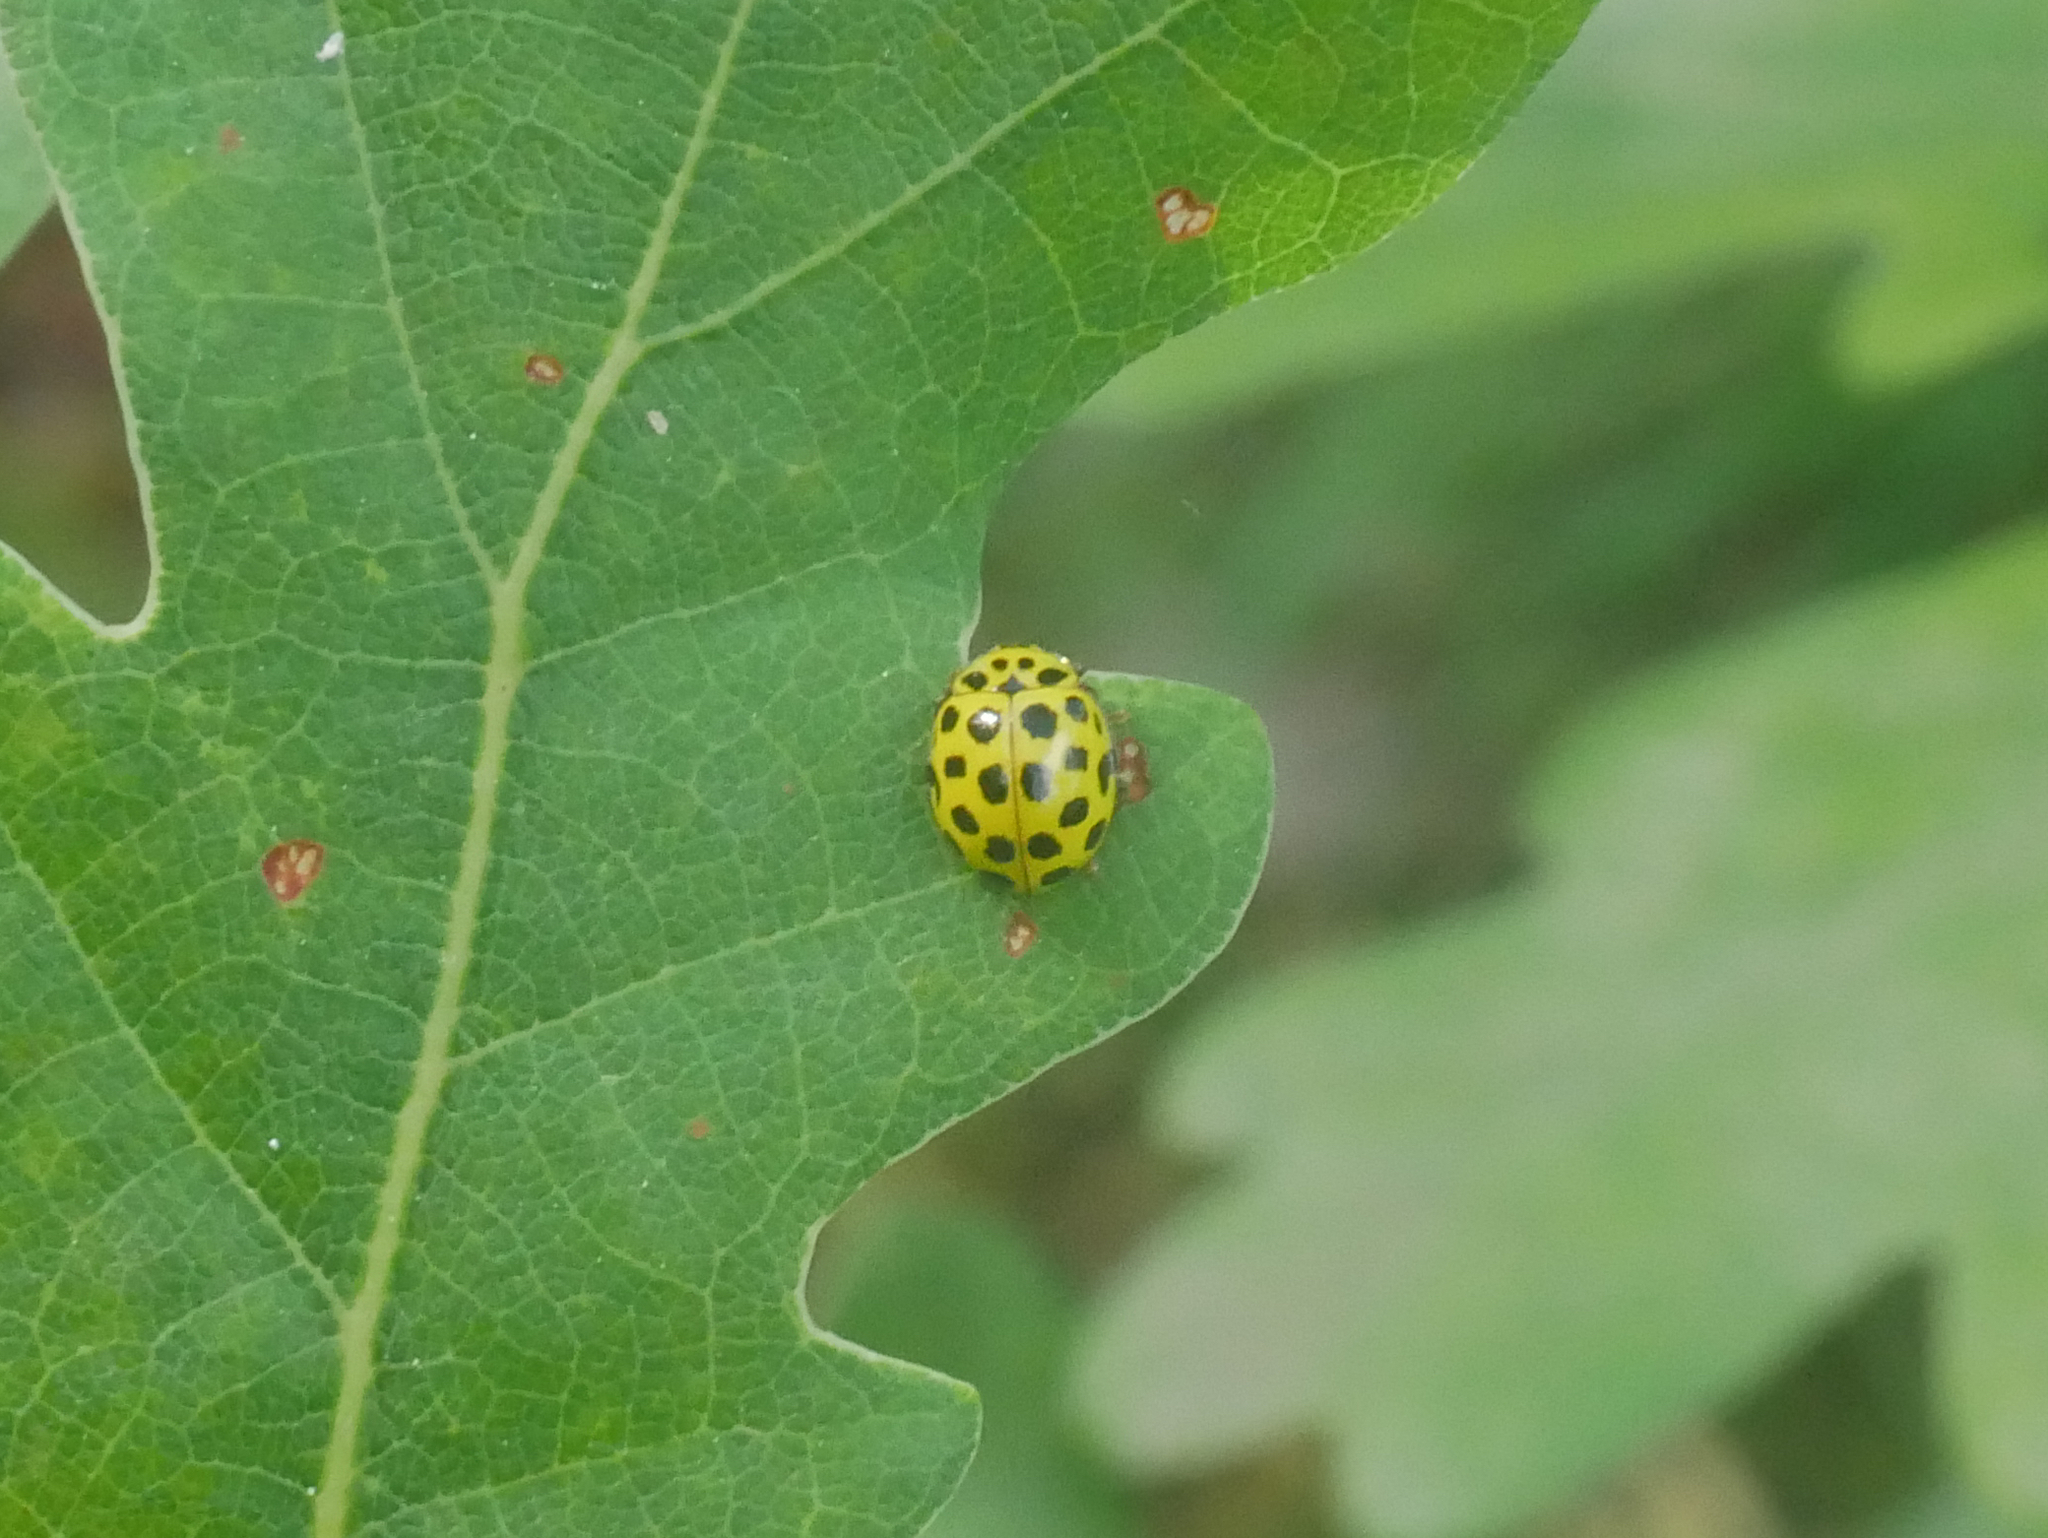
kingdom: Animalia
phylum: Arthropoda
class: Insecta
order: Coleoptera
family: Coccinellidae
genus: Psyllobora
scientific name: Psyllobora vigintiduopunctata
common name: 22-spot ladybird
